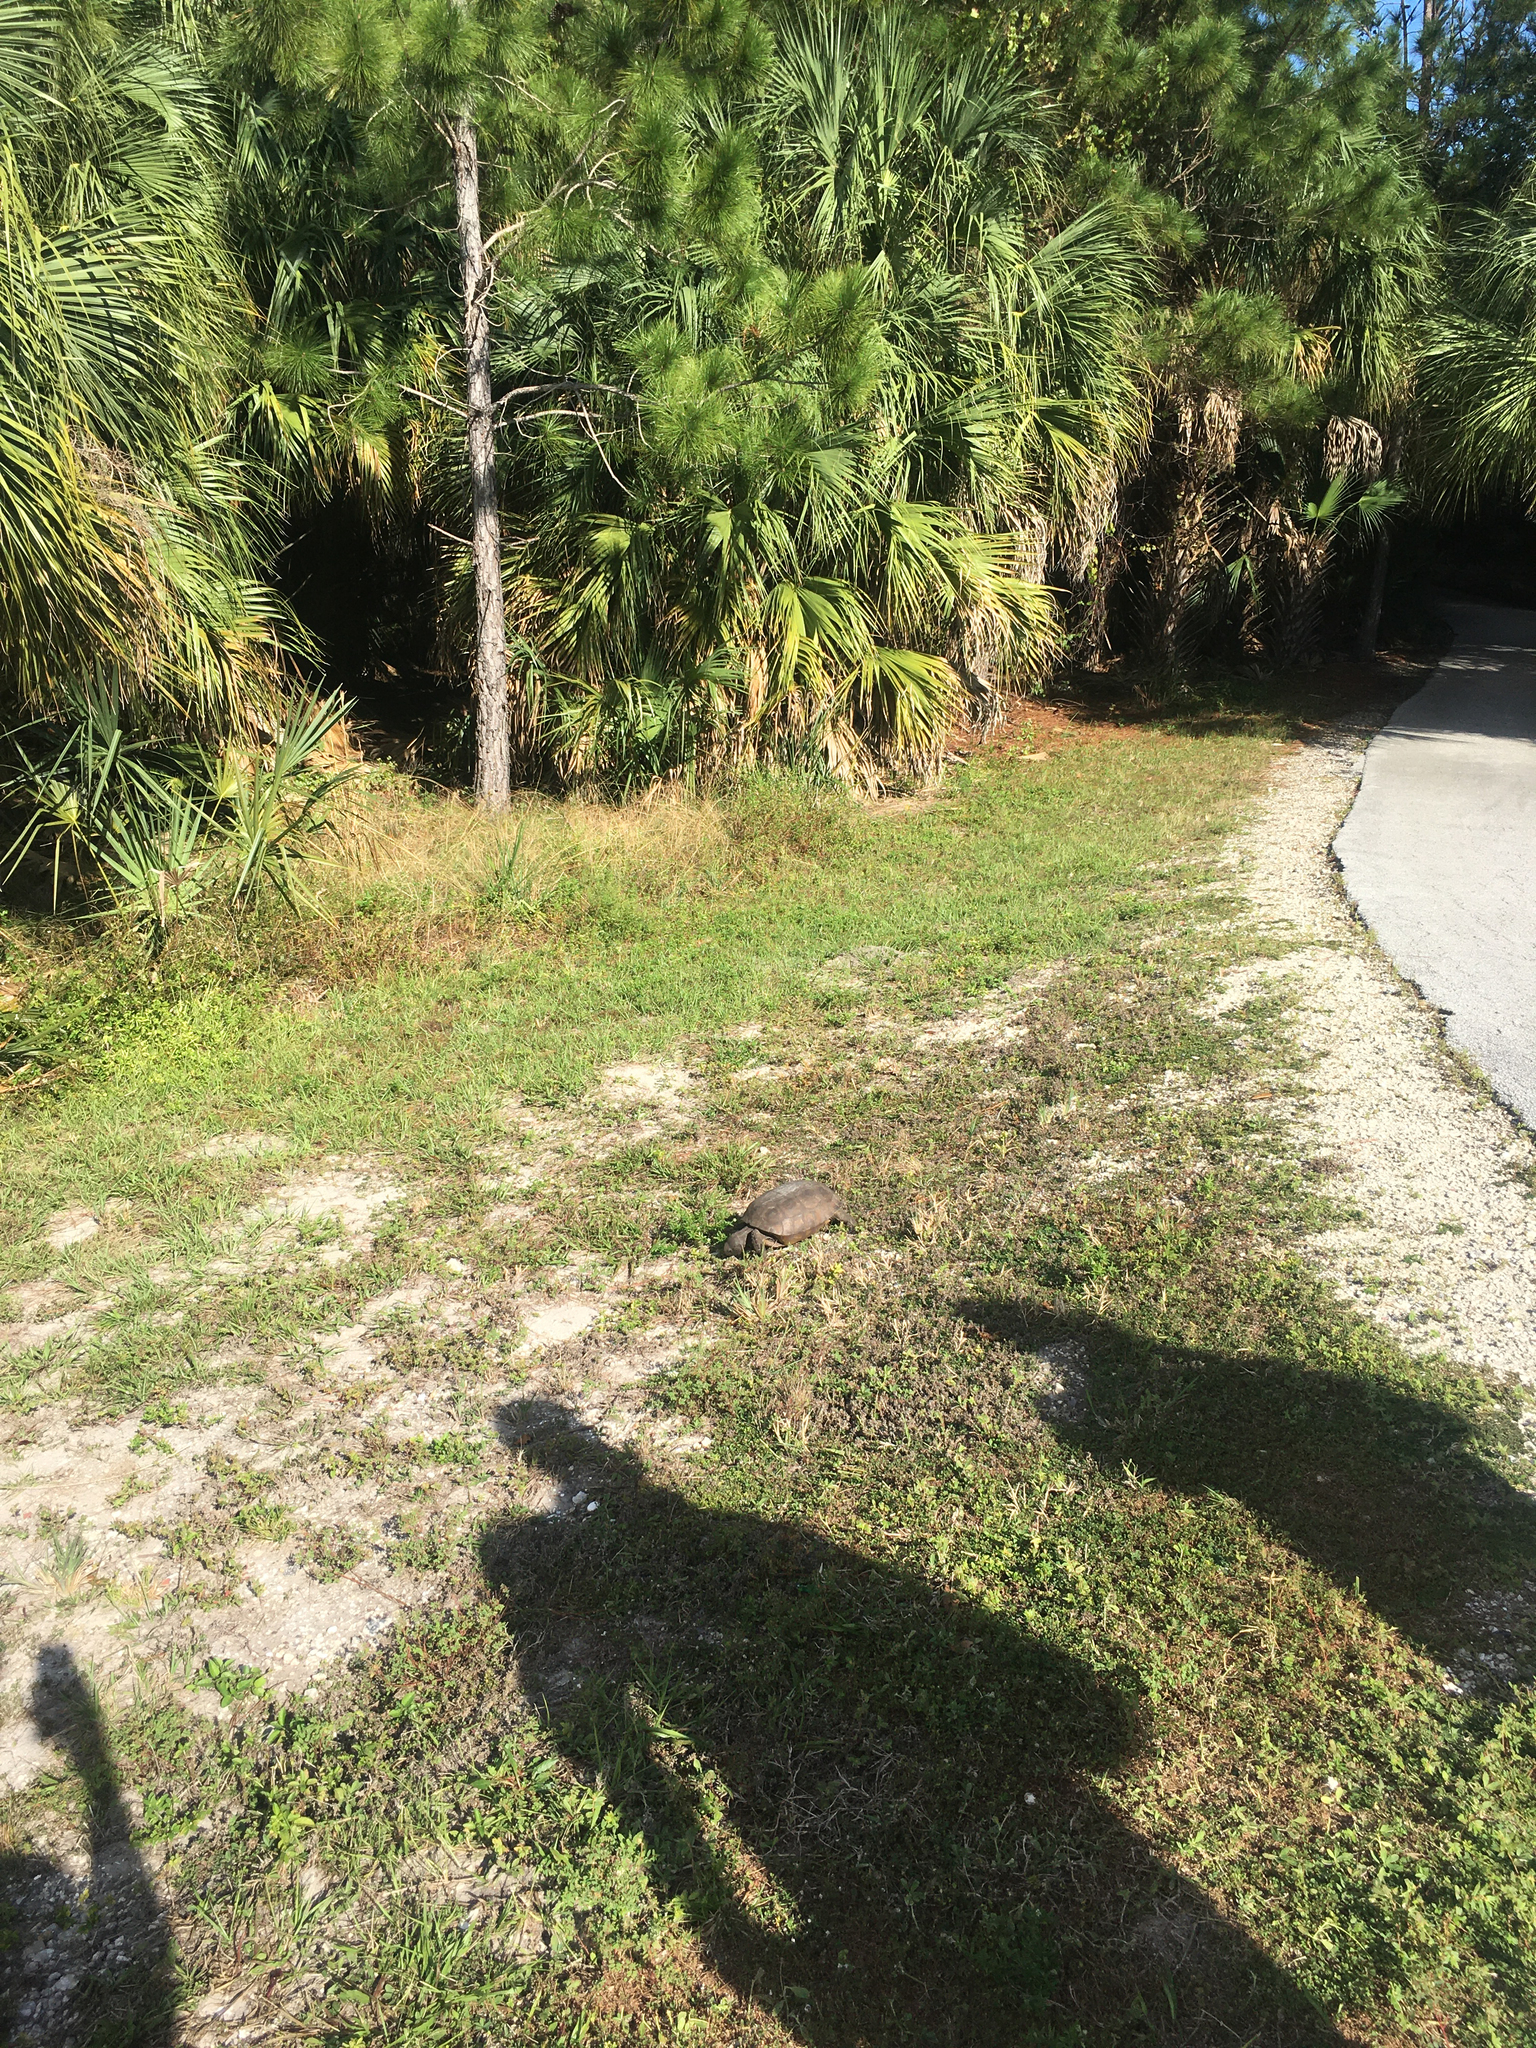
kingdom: Animalia
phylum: Chordata
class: Testudines
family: Testudinidae
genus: Gopherus
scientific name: Gopherus polyphemus
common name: Florida gopher tortoise
